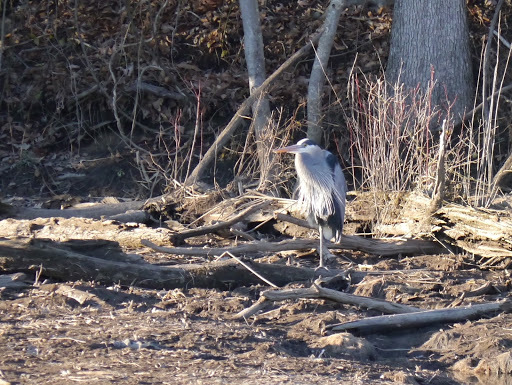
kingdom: Animalia
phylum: Chordata
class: Aves
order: Pelecaniformes
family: Ardeidae
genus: Ardea
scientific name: Ardea herodias
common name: Great blue heron
